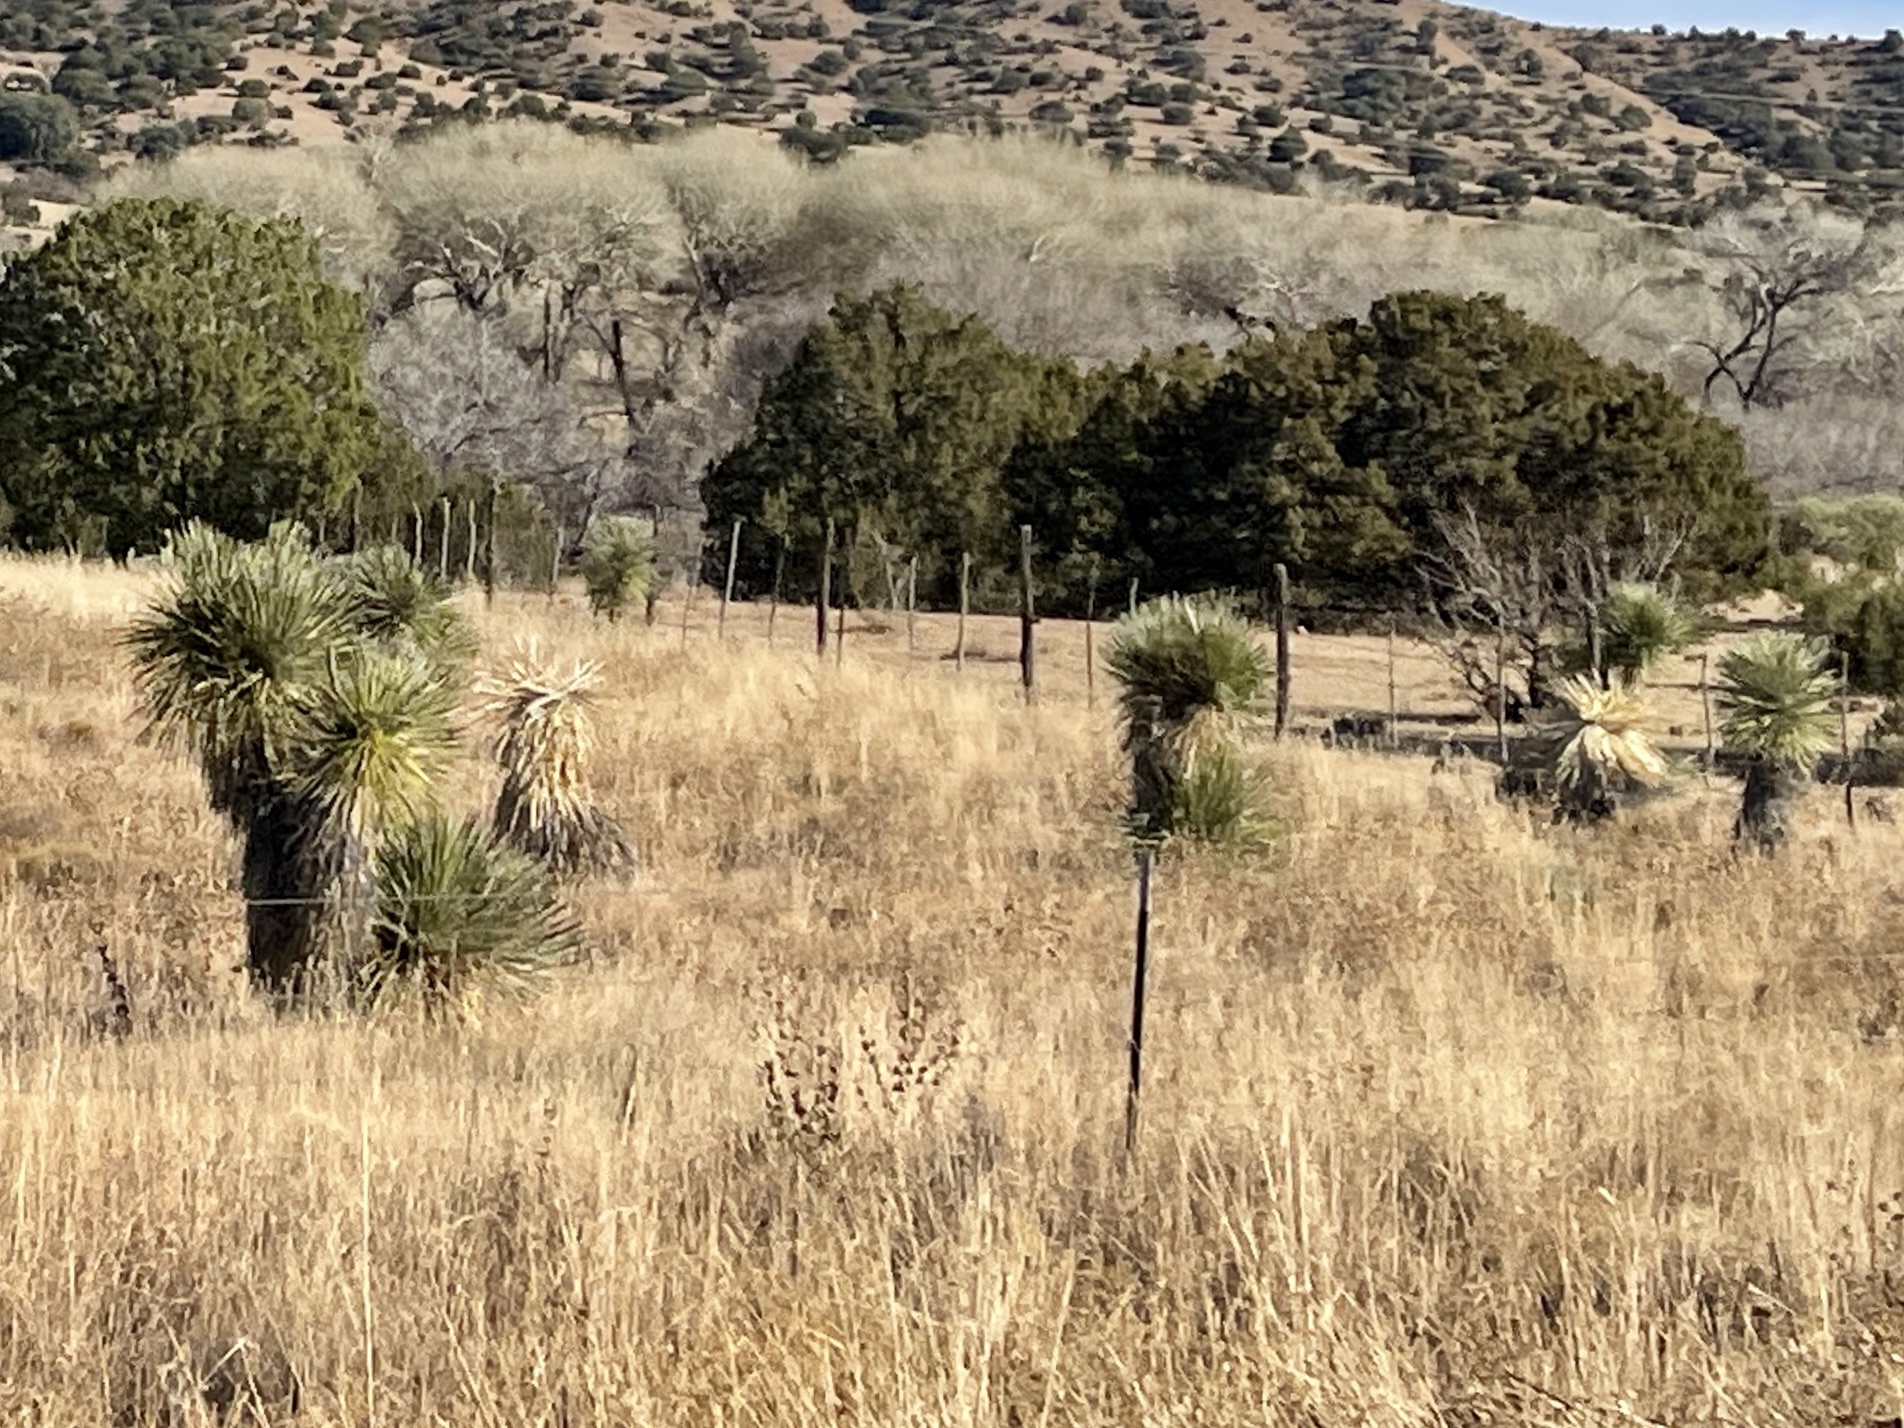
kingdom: Plantae
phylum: Tracheophyta
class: Liliopsida
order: Asparagales
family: Asparagaceae
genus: Yucca
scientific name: Yucca elata
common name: Palmella
